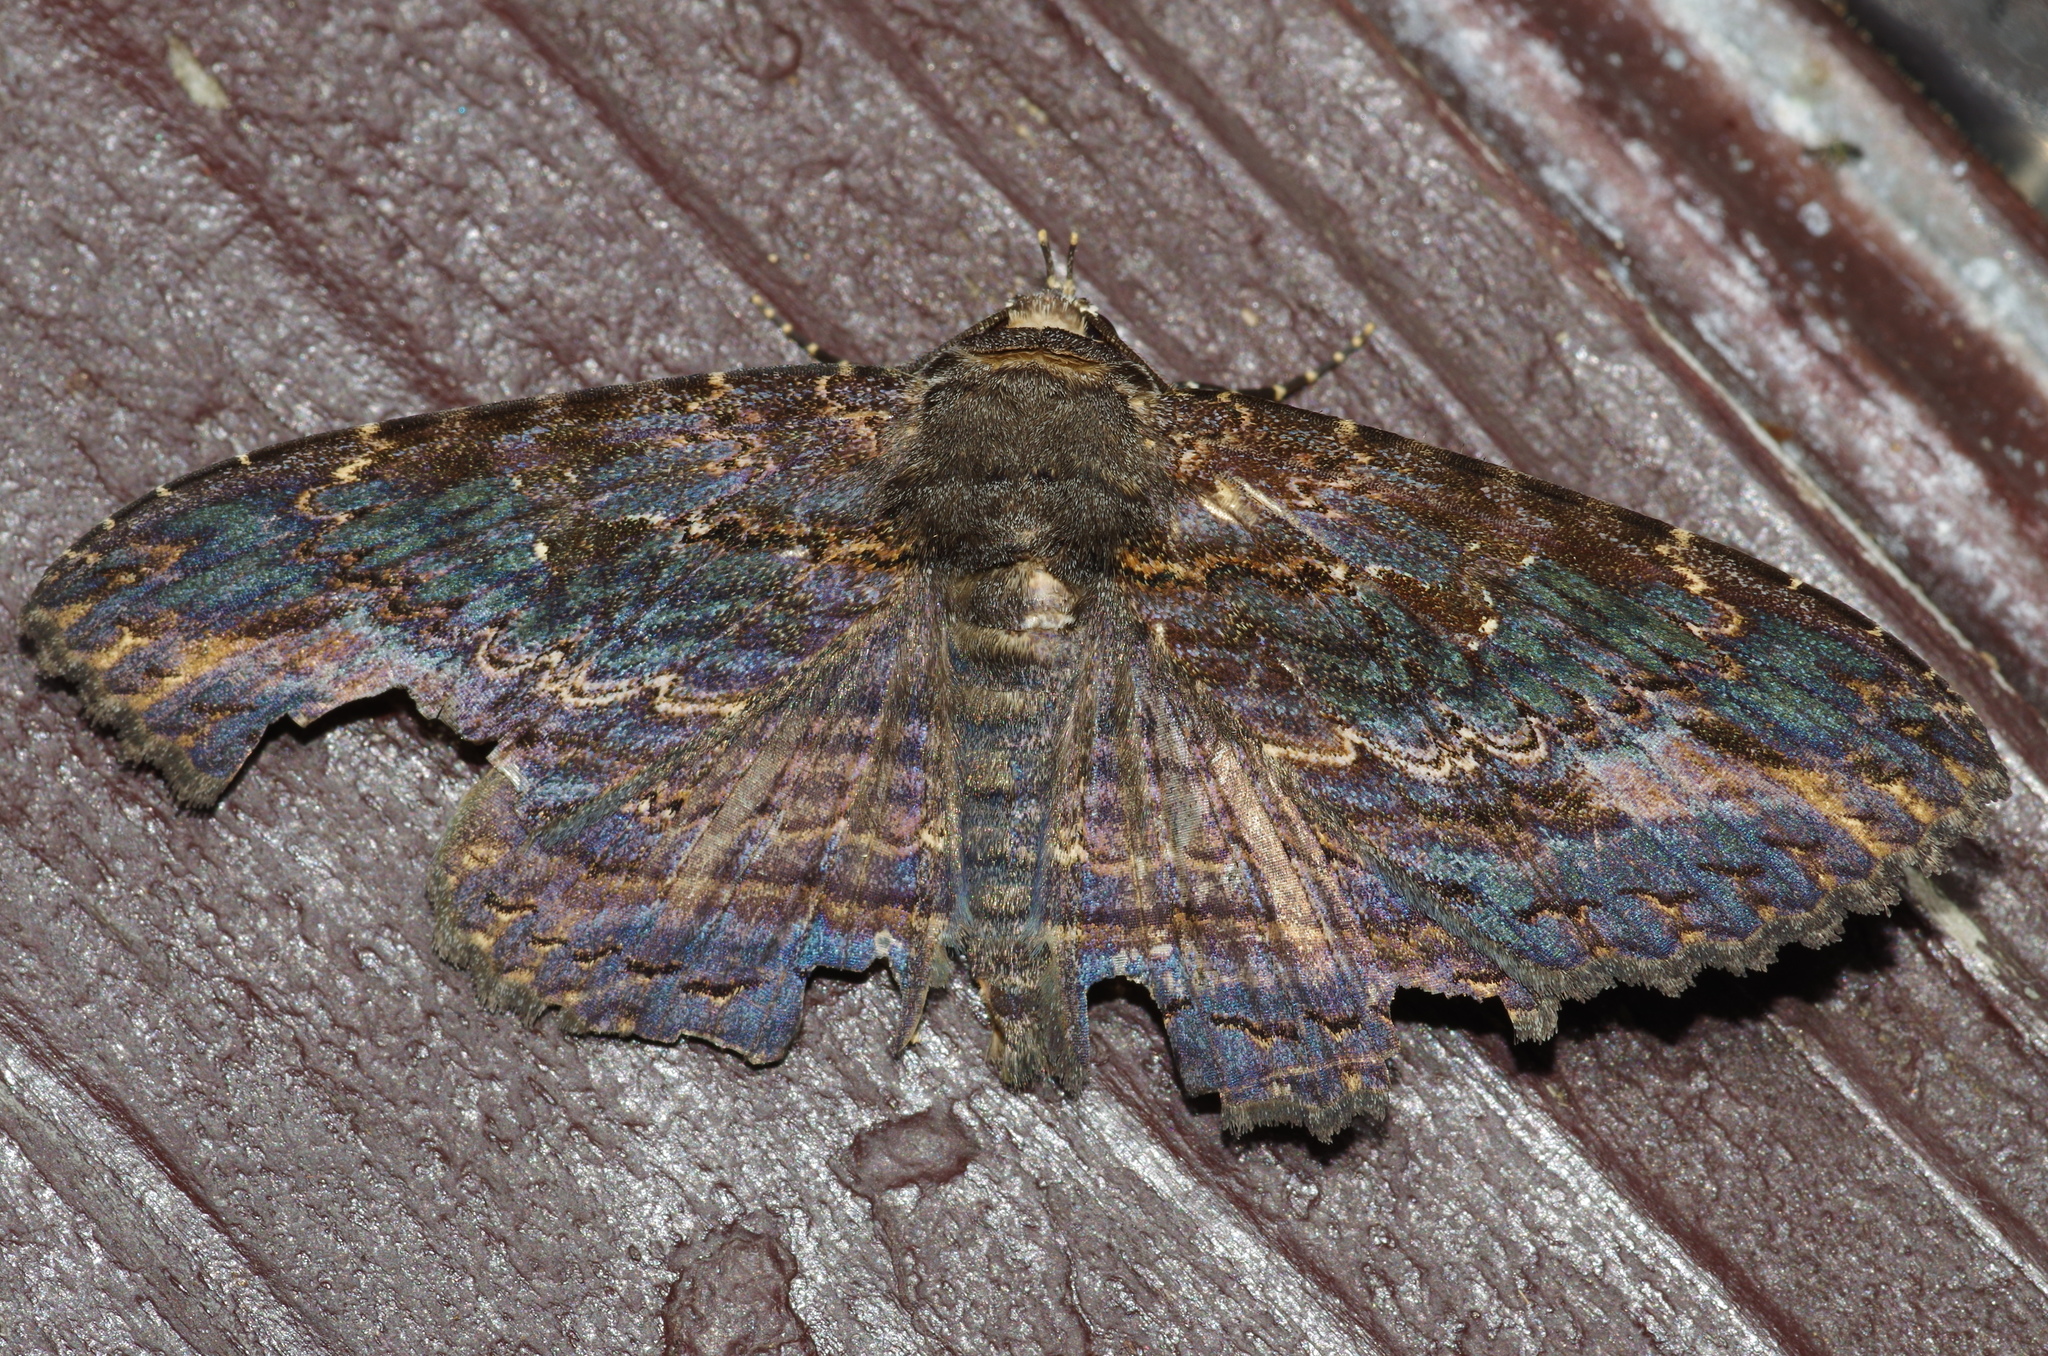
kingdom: Animalia
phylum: Arthropoda
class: Insecta
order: Lepidoptera
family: Erebidae
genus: Anisoneura
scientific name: Anisoneura salebrosa
